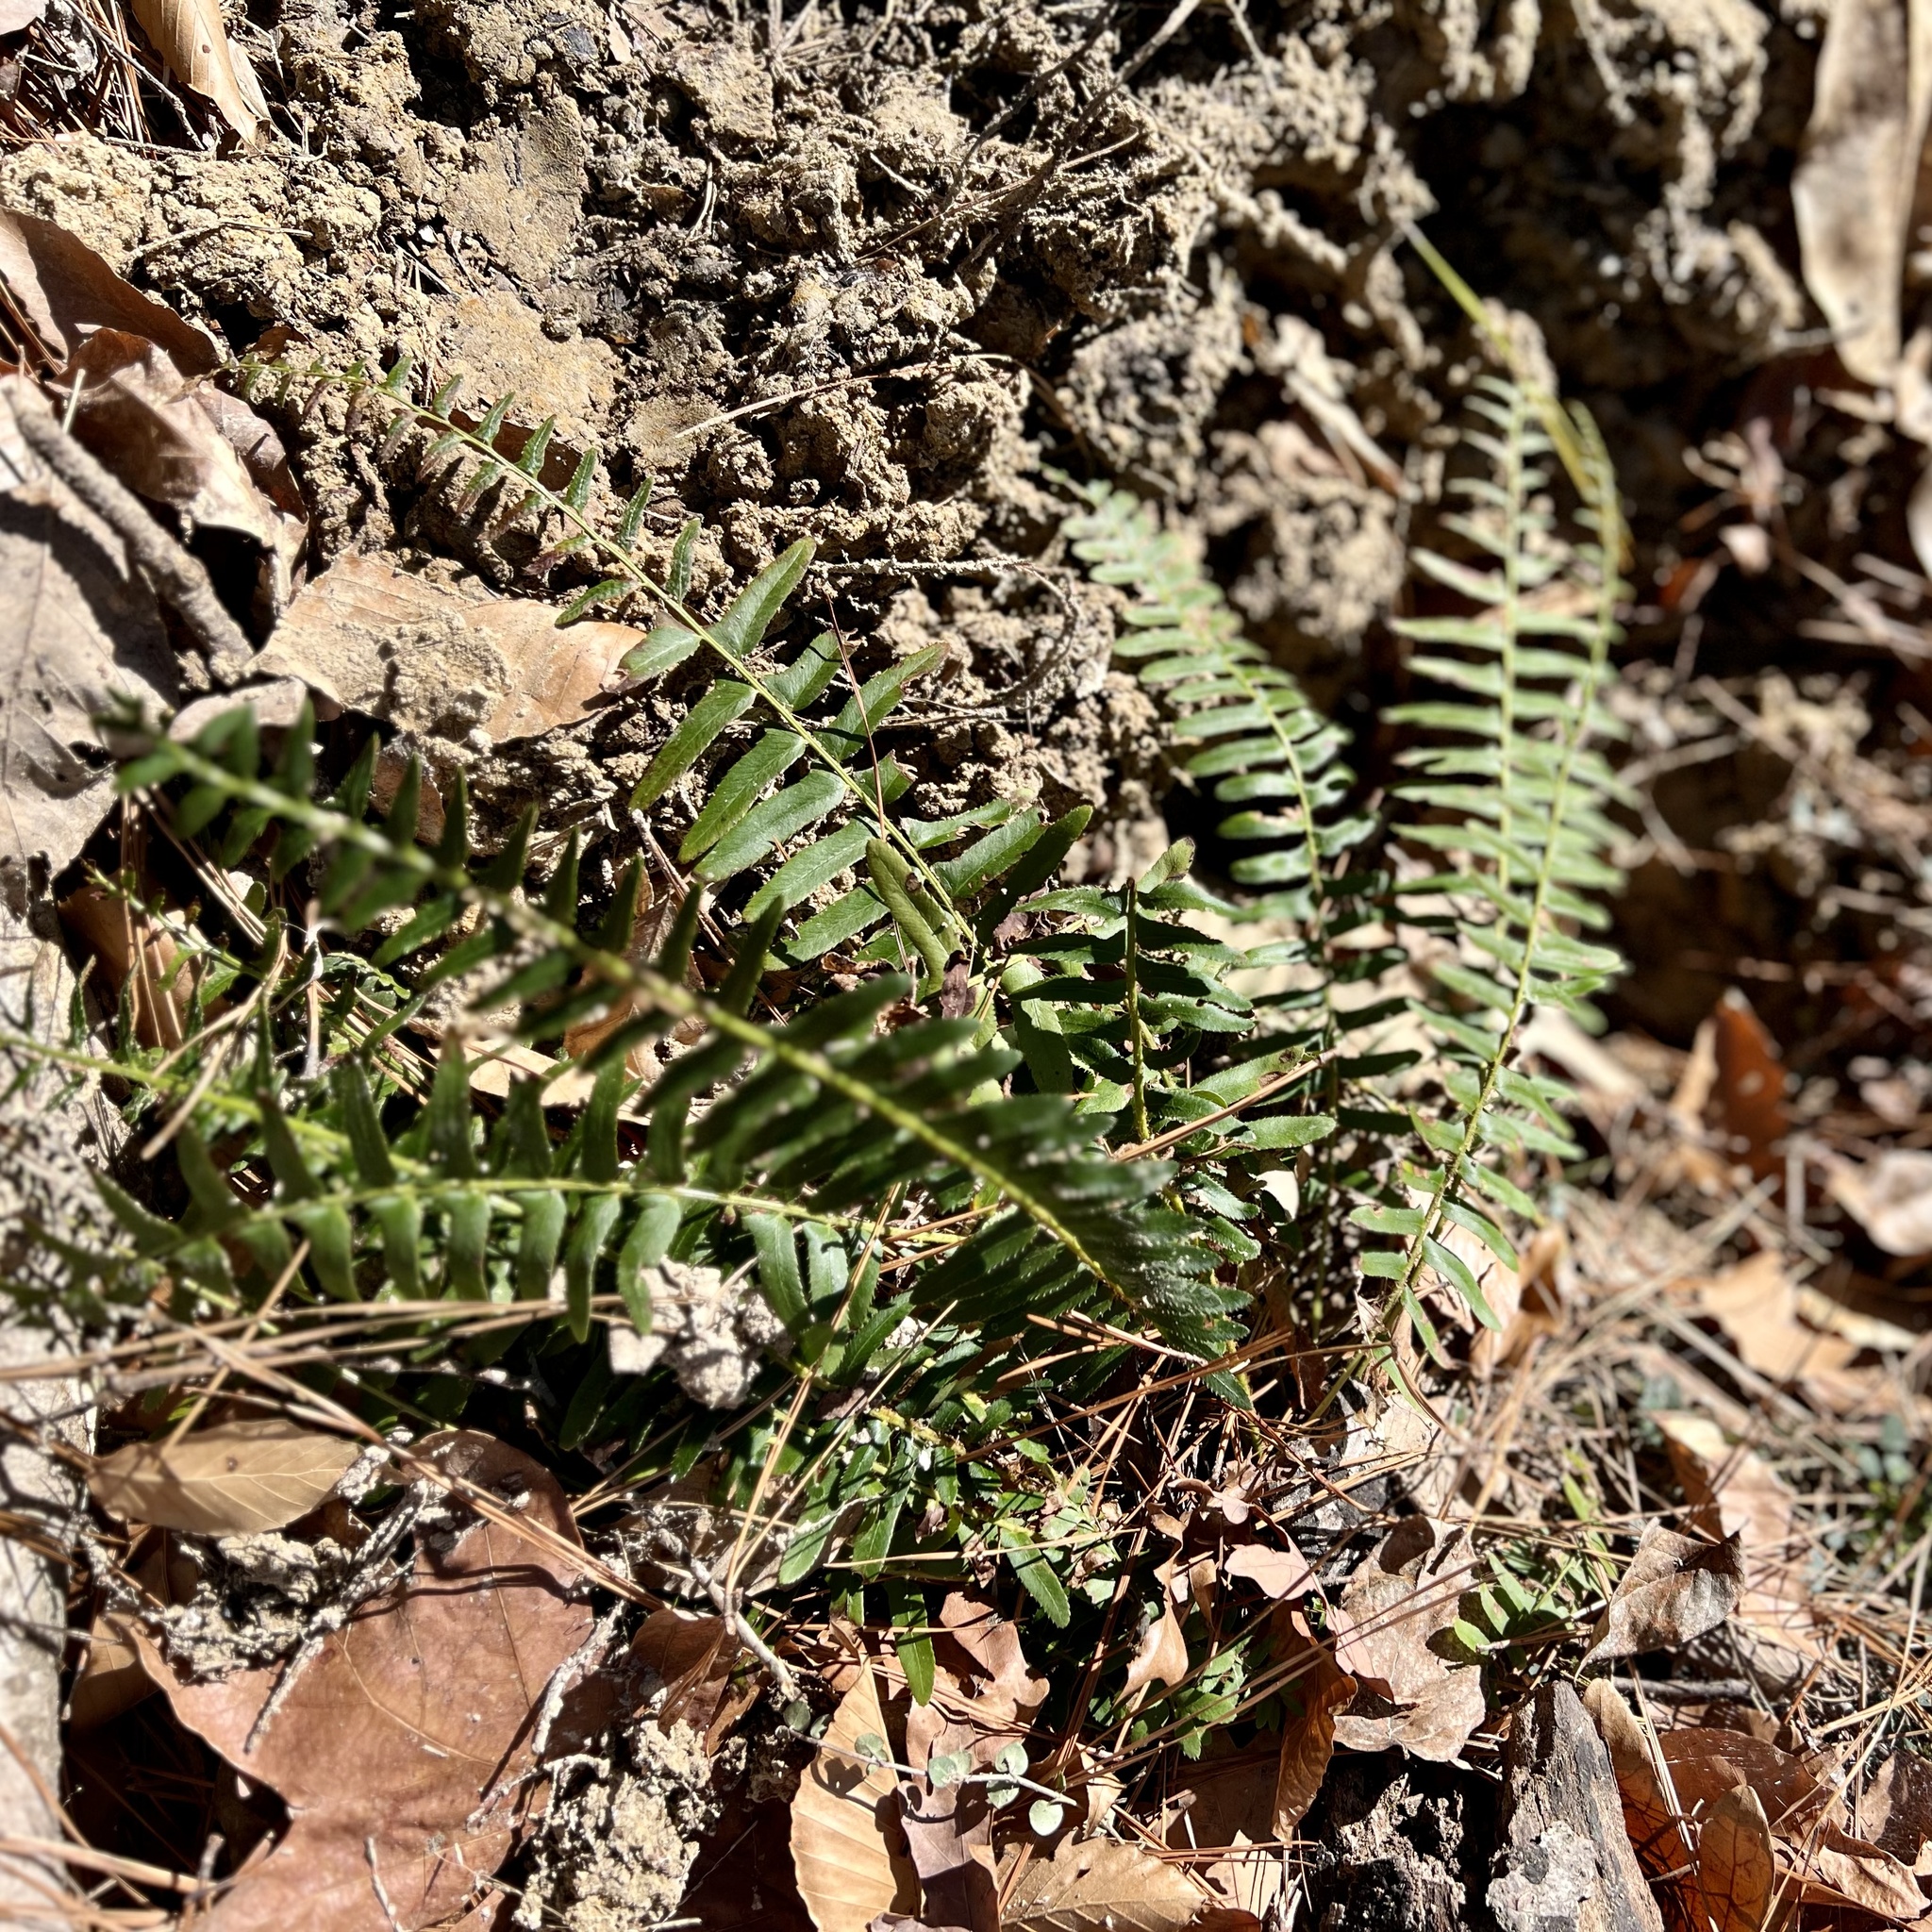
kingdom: Plantae
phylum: Tracheophyta
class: Polypodiopsida
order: Polypodiales
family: Dryopteridaceae
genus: Polystichum
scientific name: Polystichum acrostichoides
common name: Christmas fern
